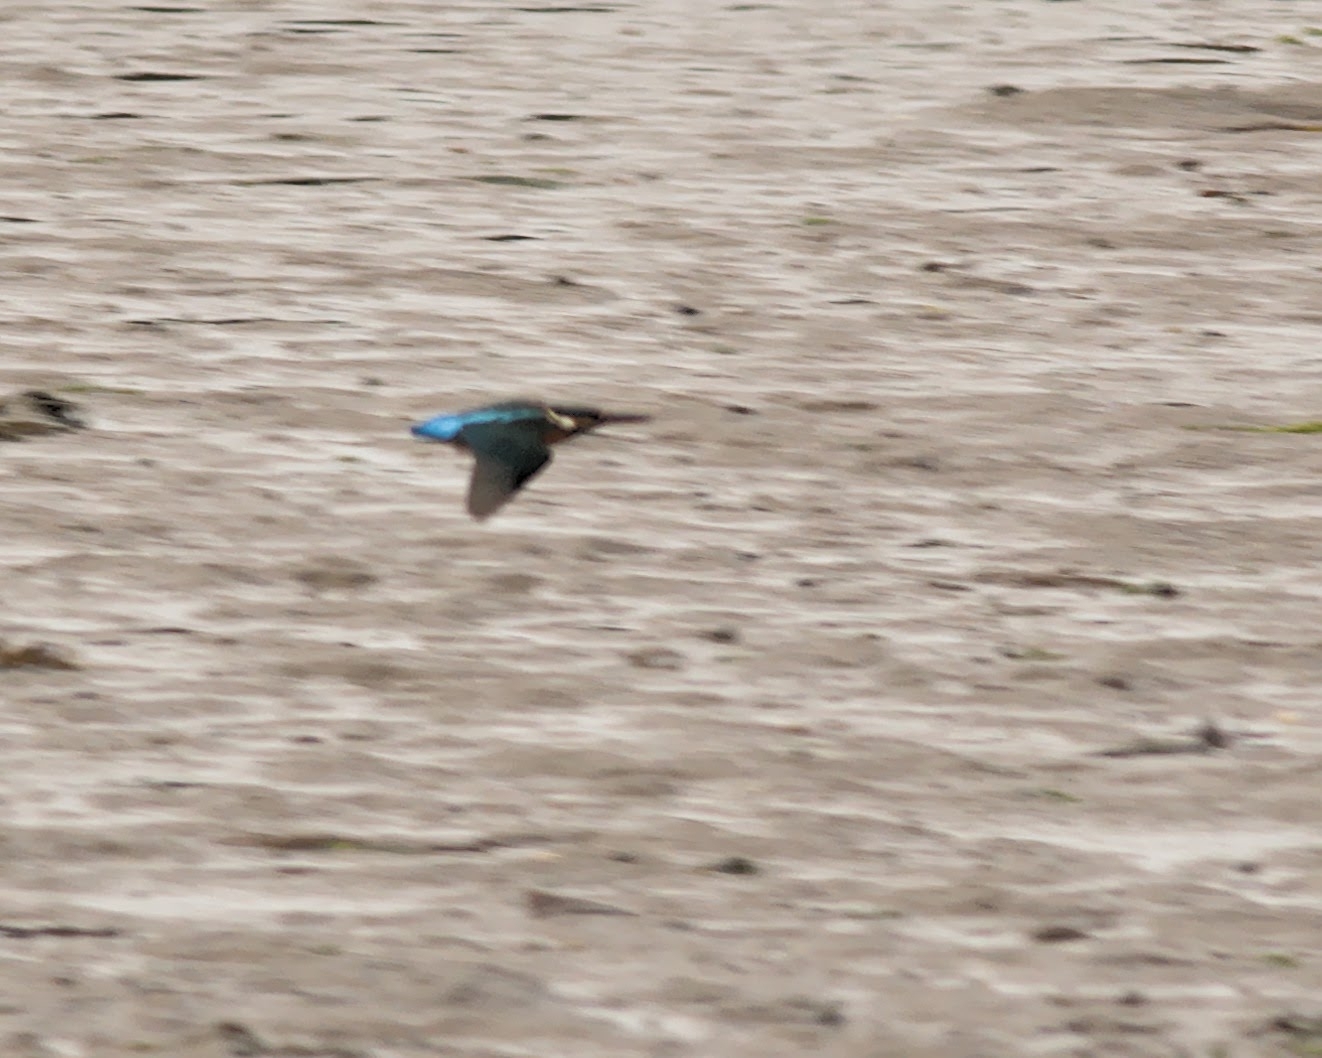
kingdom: Animalia
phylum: Chordata
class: Aves
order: Coraciiformes
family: Alcedinidae
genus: Alcedo
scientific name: Alcedo atthis
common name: Common kingfisher
